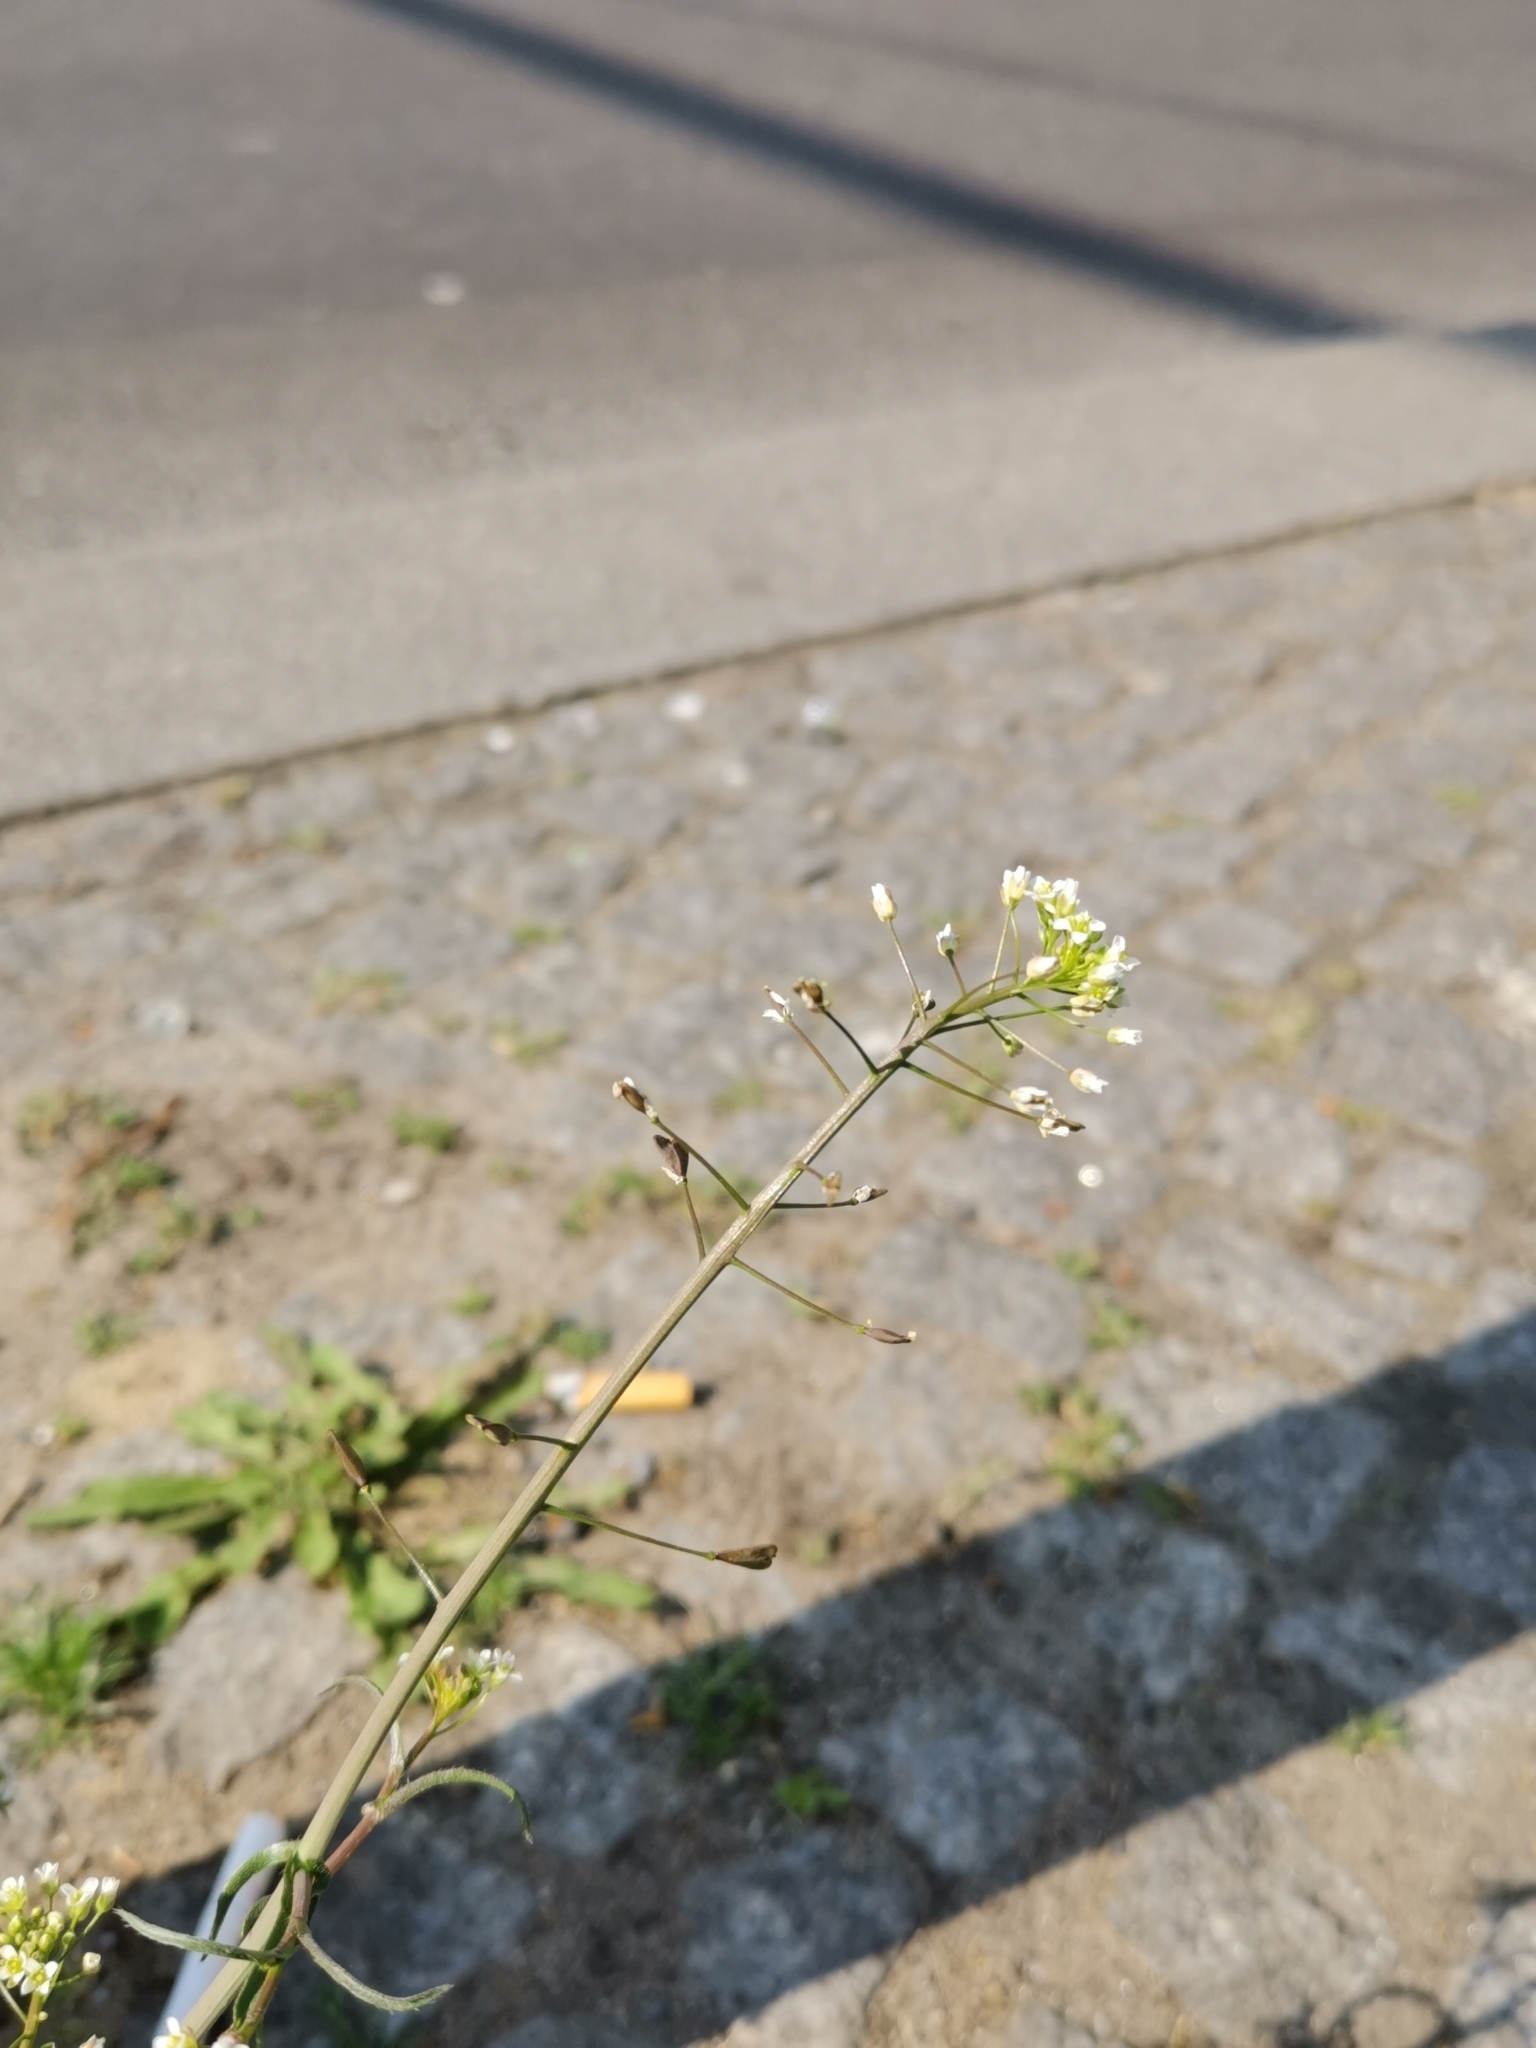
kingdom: Plantae
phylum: Tracheophyta
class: Magnoliopsida
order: Brassicales
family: Brassicaceae
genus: Capsella
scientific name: Capsella bursa-pastoris
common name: Shepherd's purse
